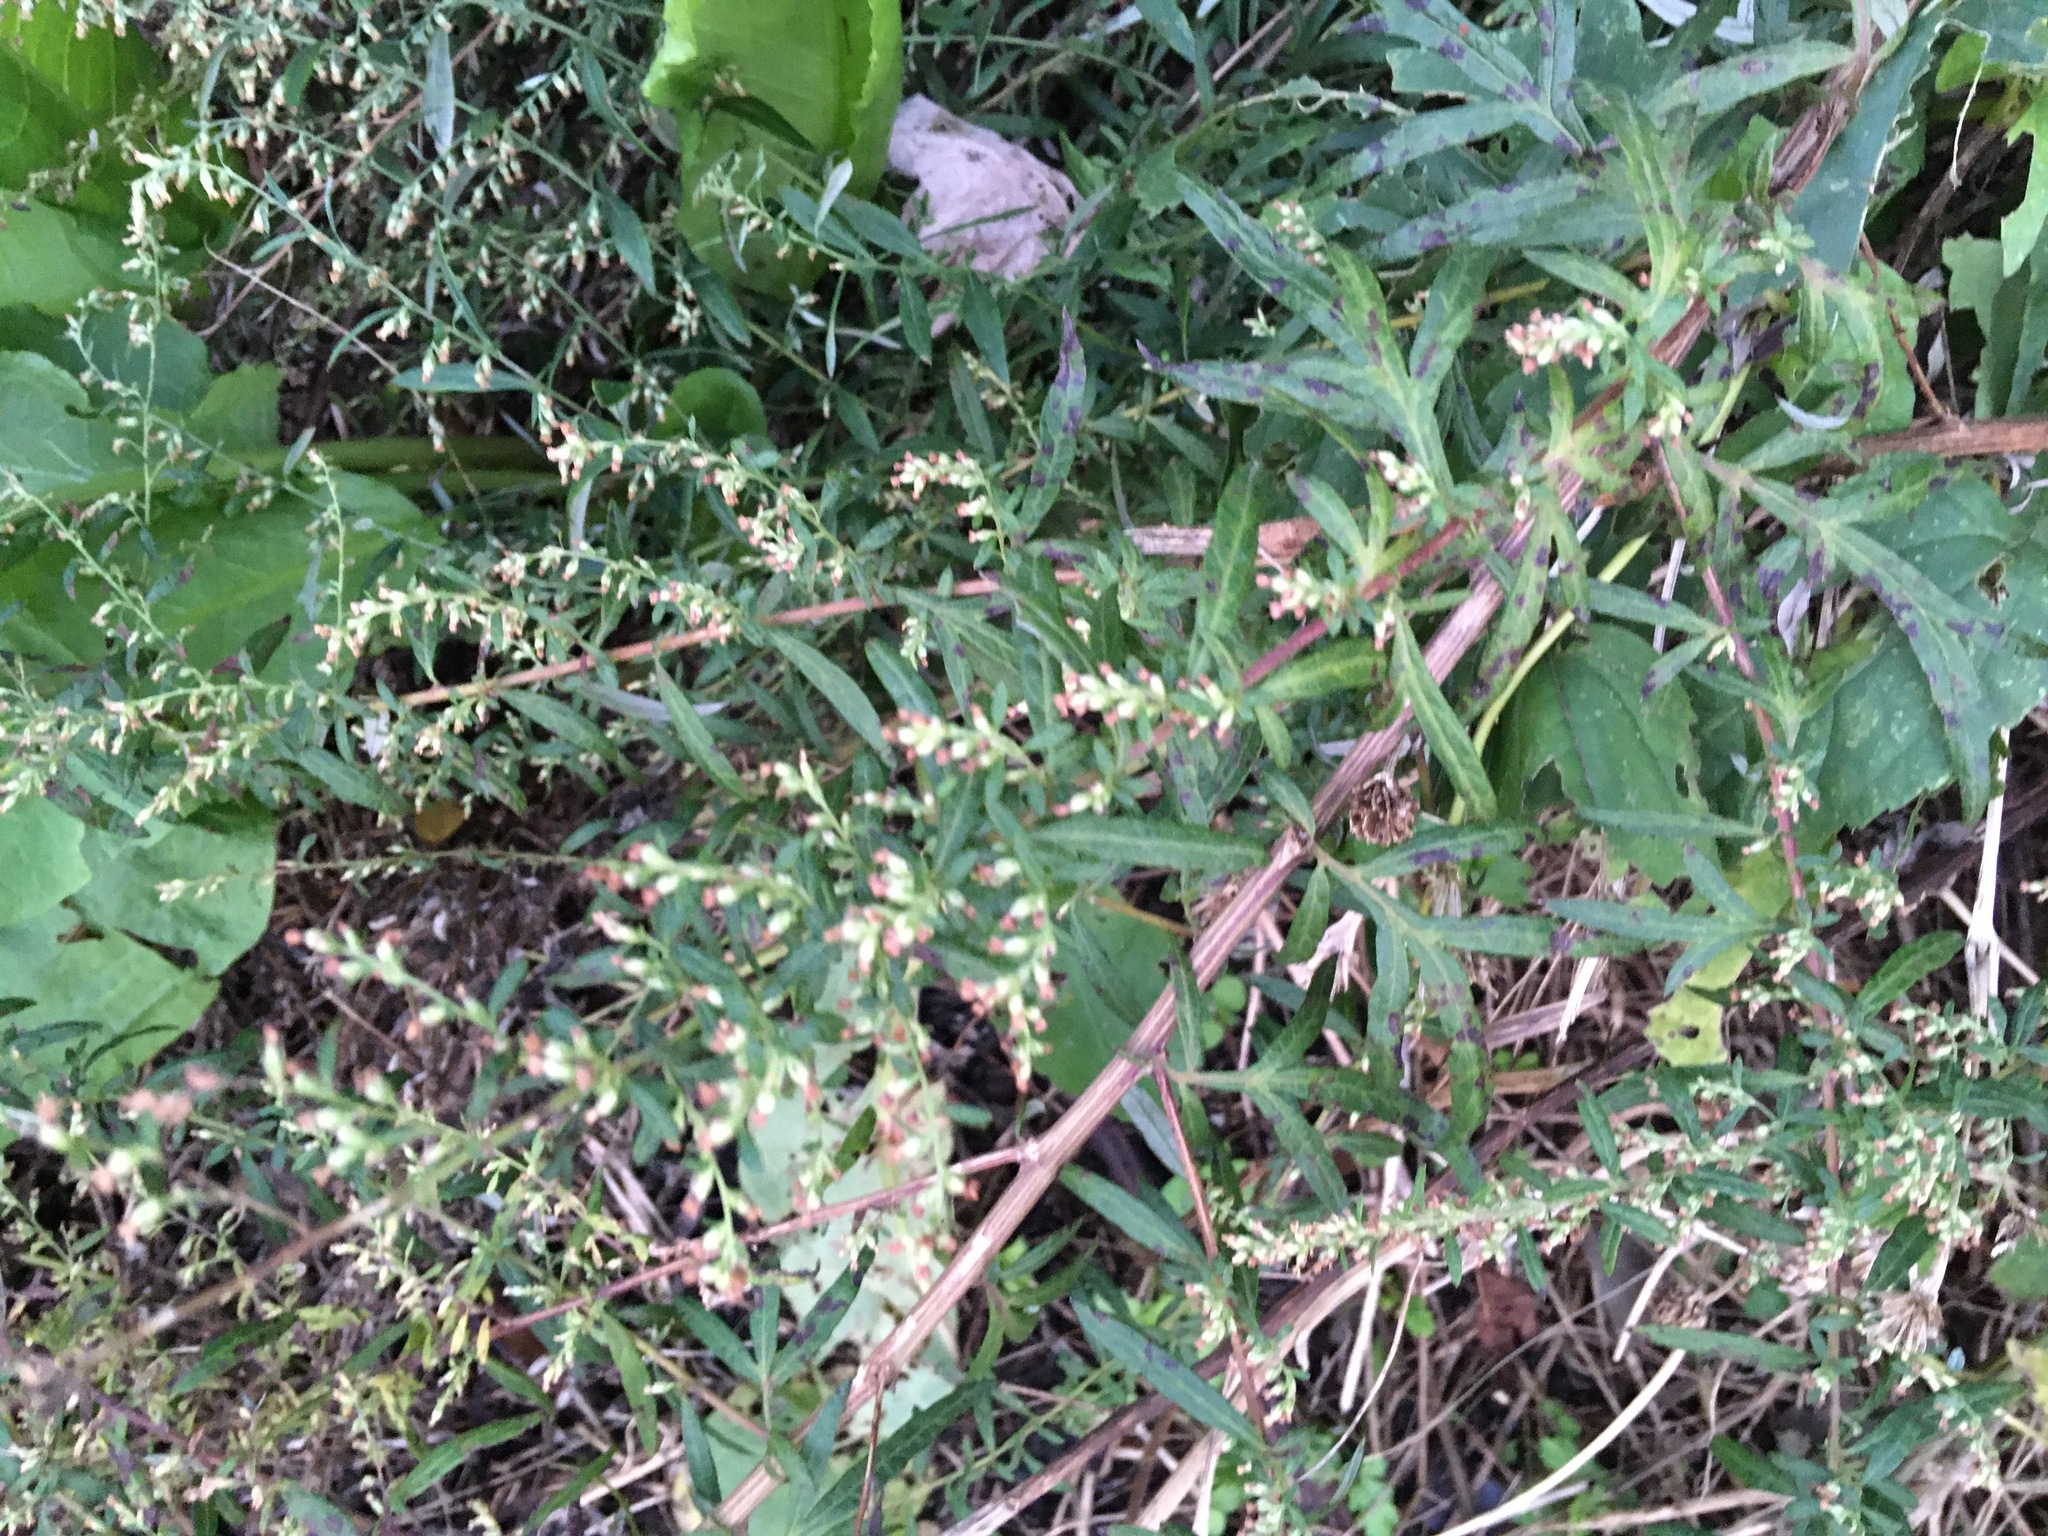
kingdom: Plantae
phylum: Tracheophyta
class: Magnoliopsida
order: Asterales
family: Asteraceae
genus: Artemisia
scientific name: Artemisia vulgaris
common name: Mugwort
